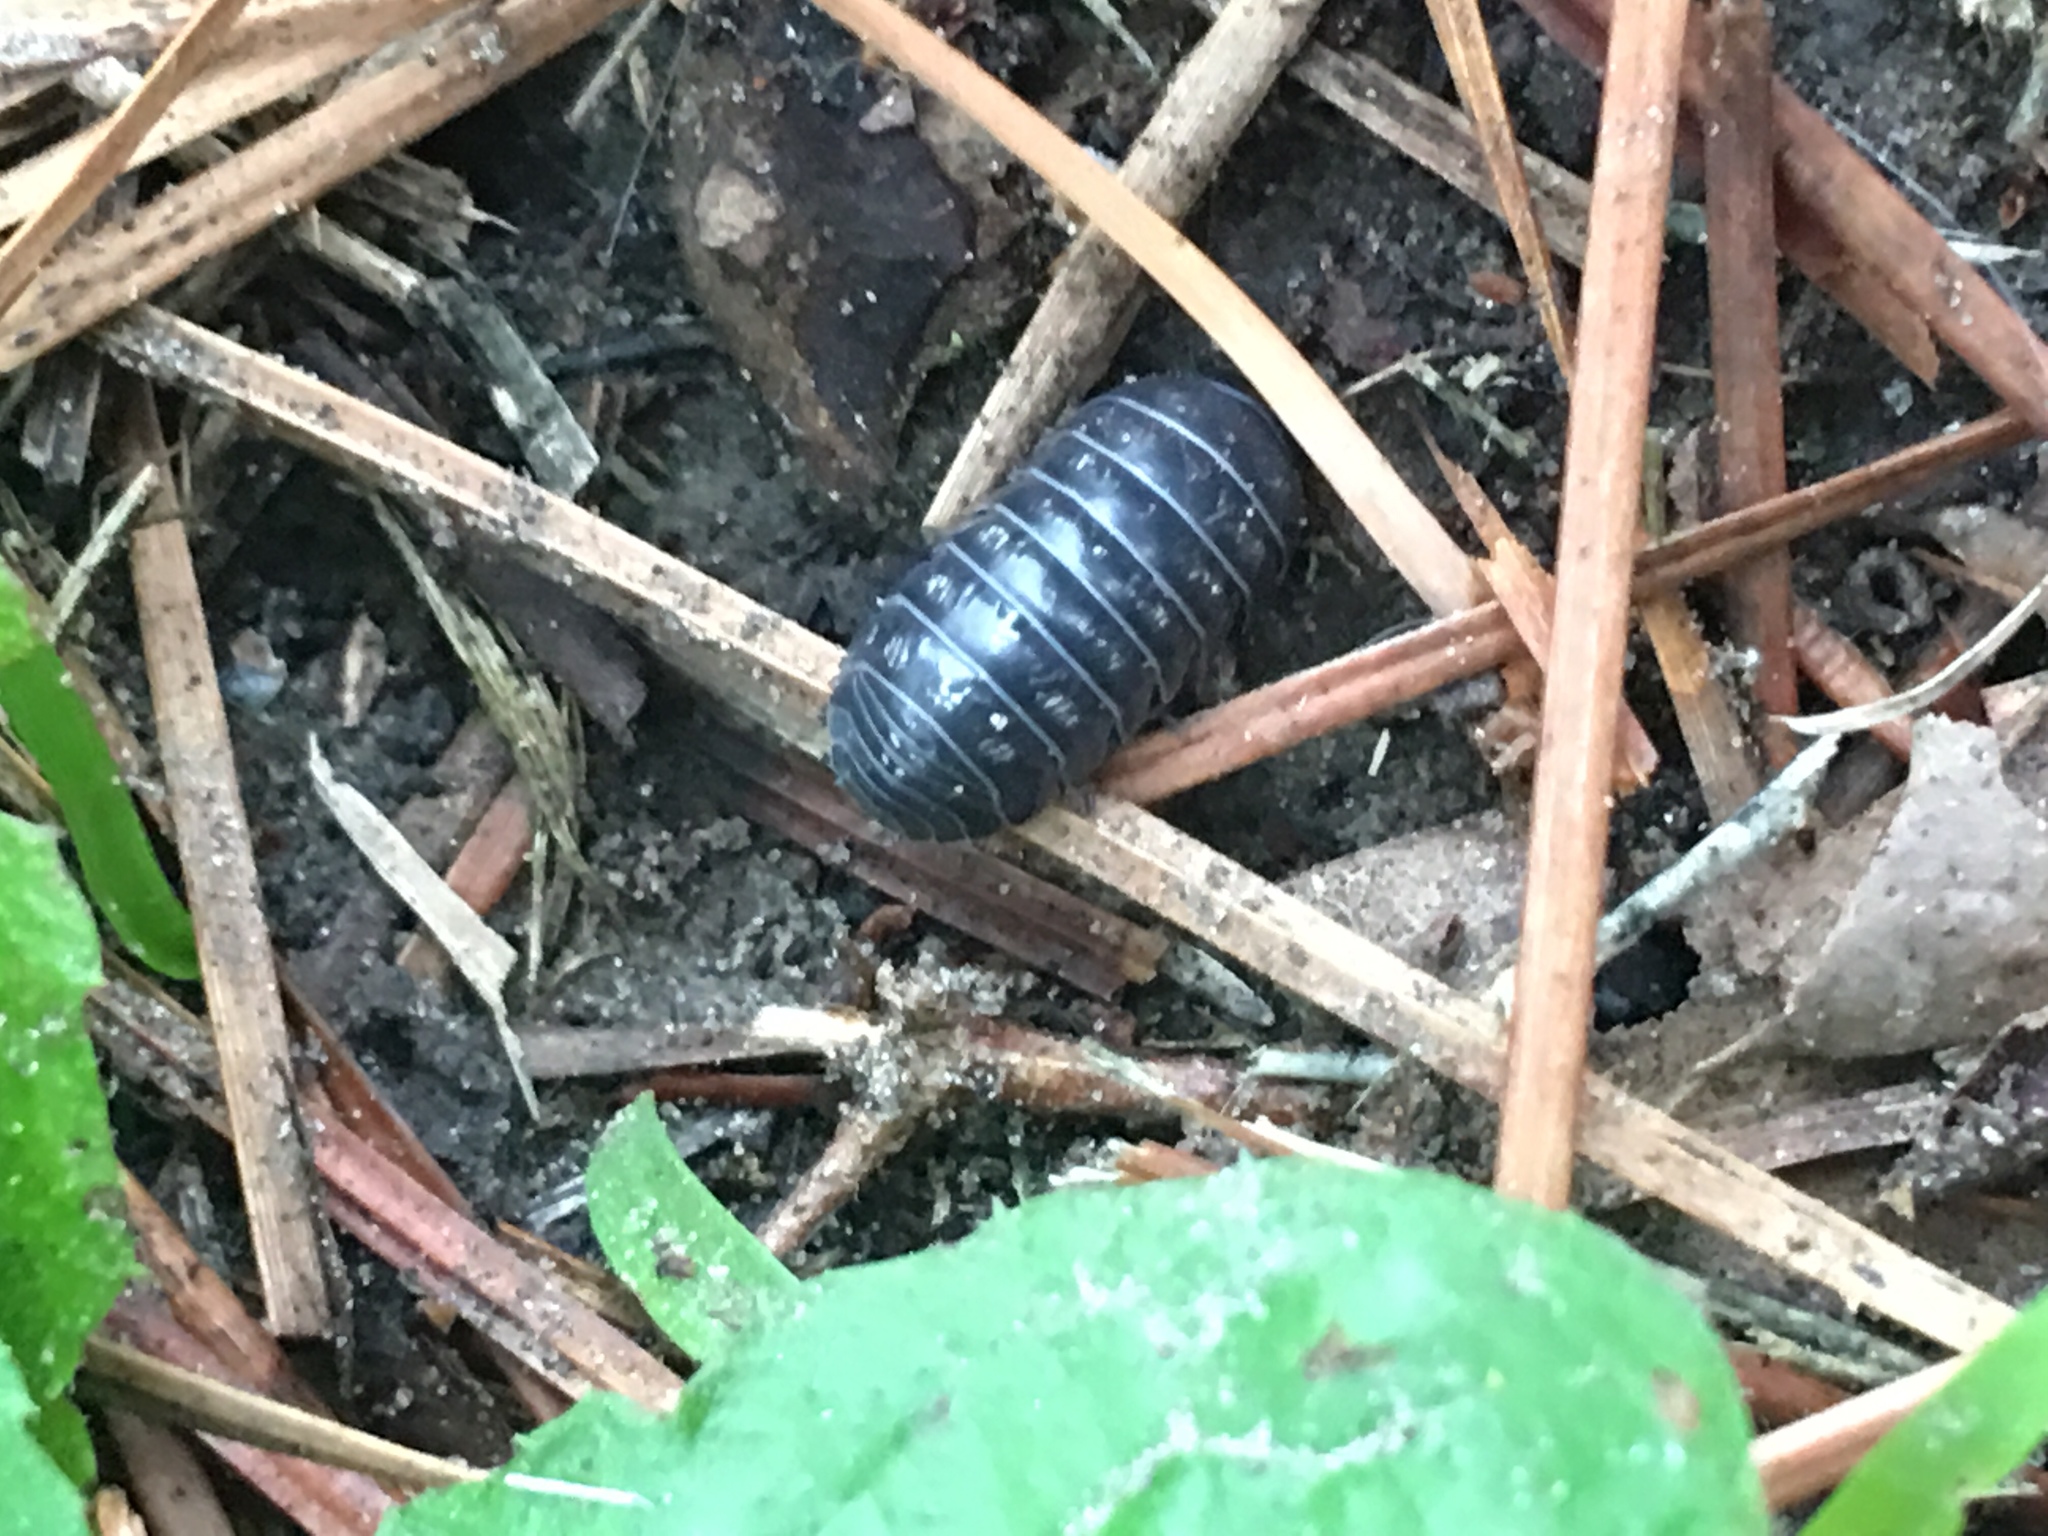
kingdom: Animalia
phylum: Arthropoda
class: Malacostraca
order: Isopoda
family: Armadillidiidae
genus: Armadillidium
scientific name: Armadillidium vulgare
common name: Common pill woodlouse
